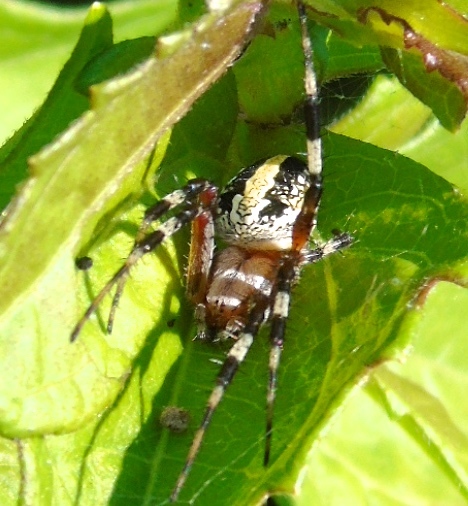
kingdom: Animalia
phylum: Arthropoda
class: Arachnida
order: Araneae
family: Araneidae
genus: Neoscona
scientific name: Neoscona oaxacensis
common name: Orb weavers
